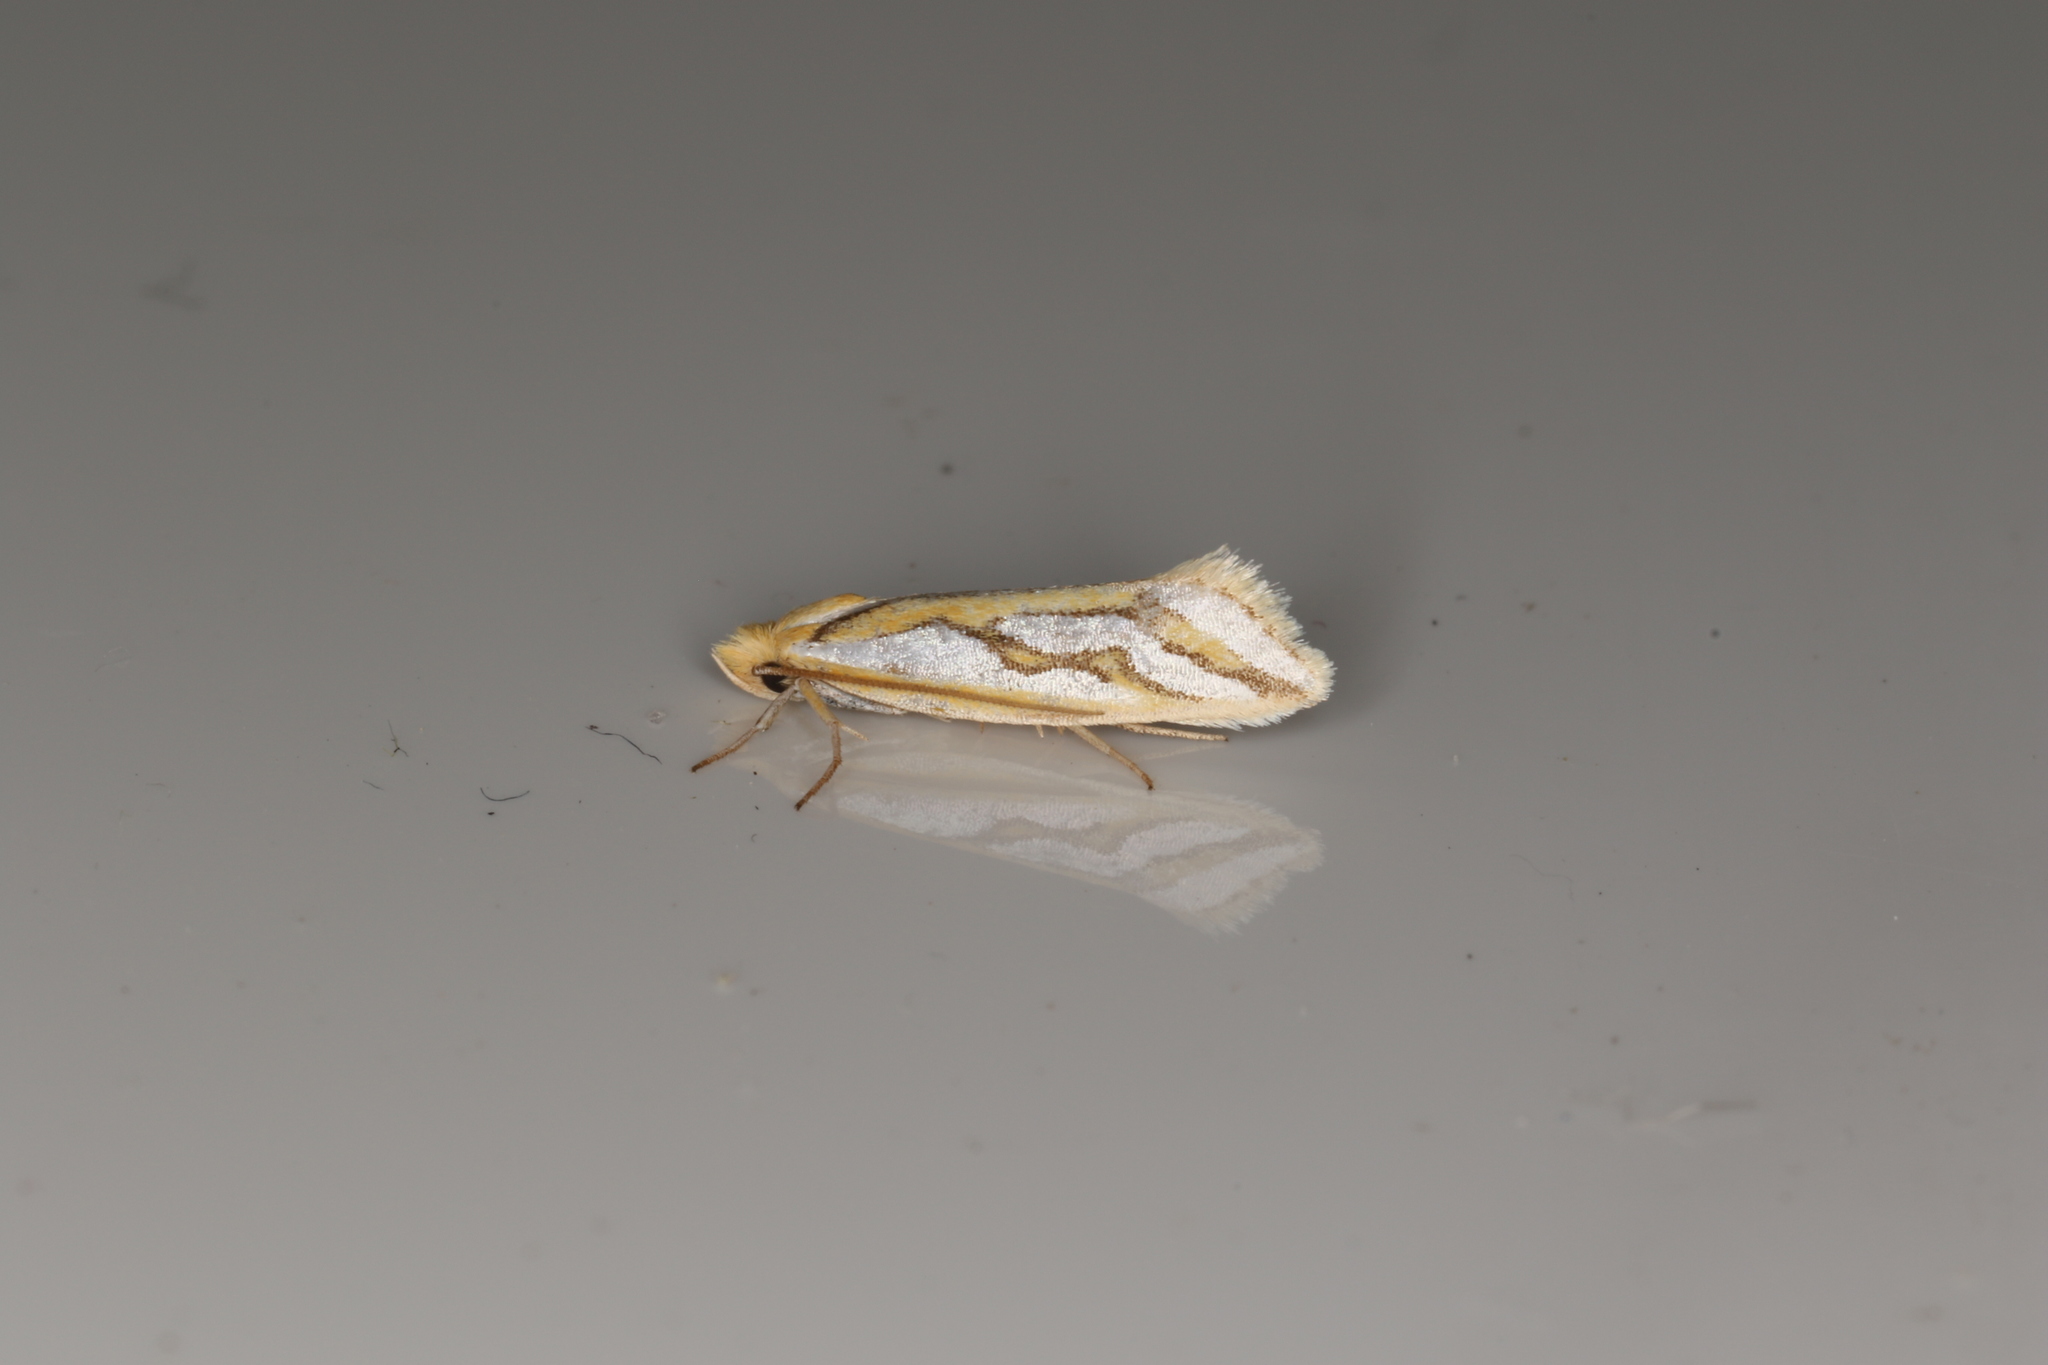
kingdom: Animalia
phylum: Arthropoda
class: Insecta
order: Lepidoptera
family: Depressariidae
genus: Thudaca
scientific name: Thudaca heterastis
